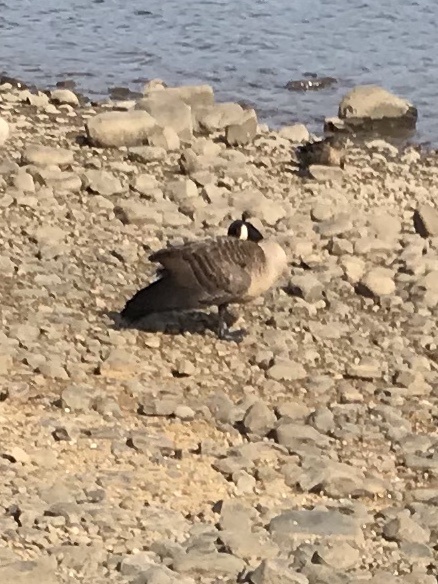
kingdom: Animalia
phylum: Chordata
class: Aves
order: Anseriformes
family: Anatidae
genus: Branta
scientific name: Branta canadensis
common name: Canada goose
